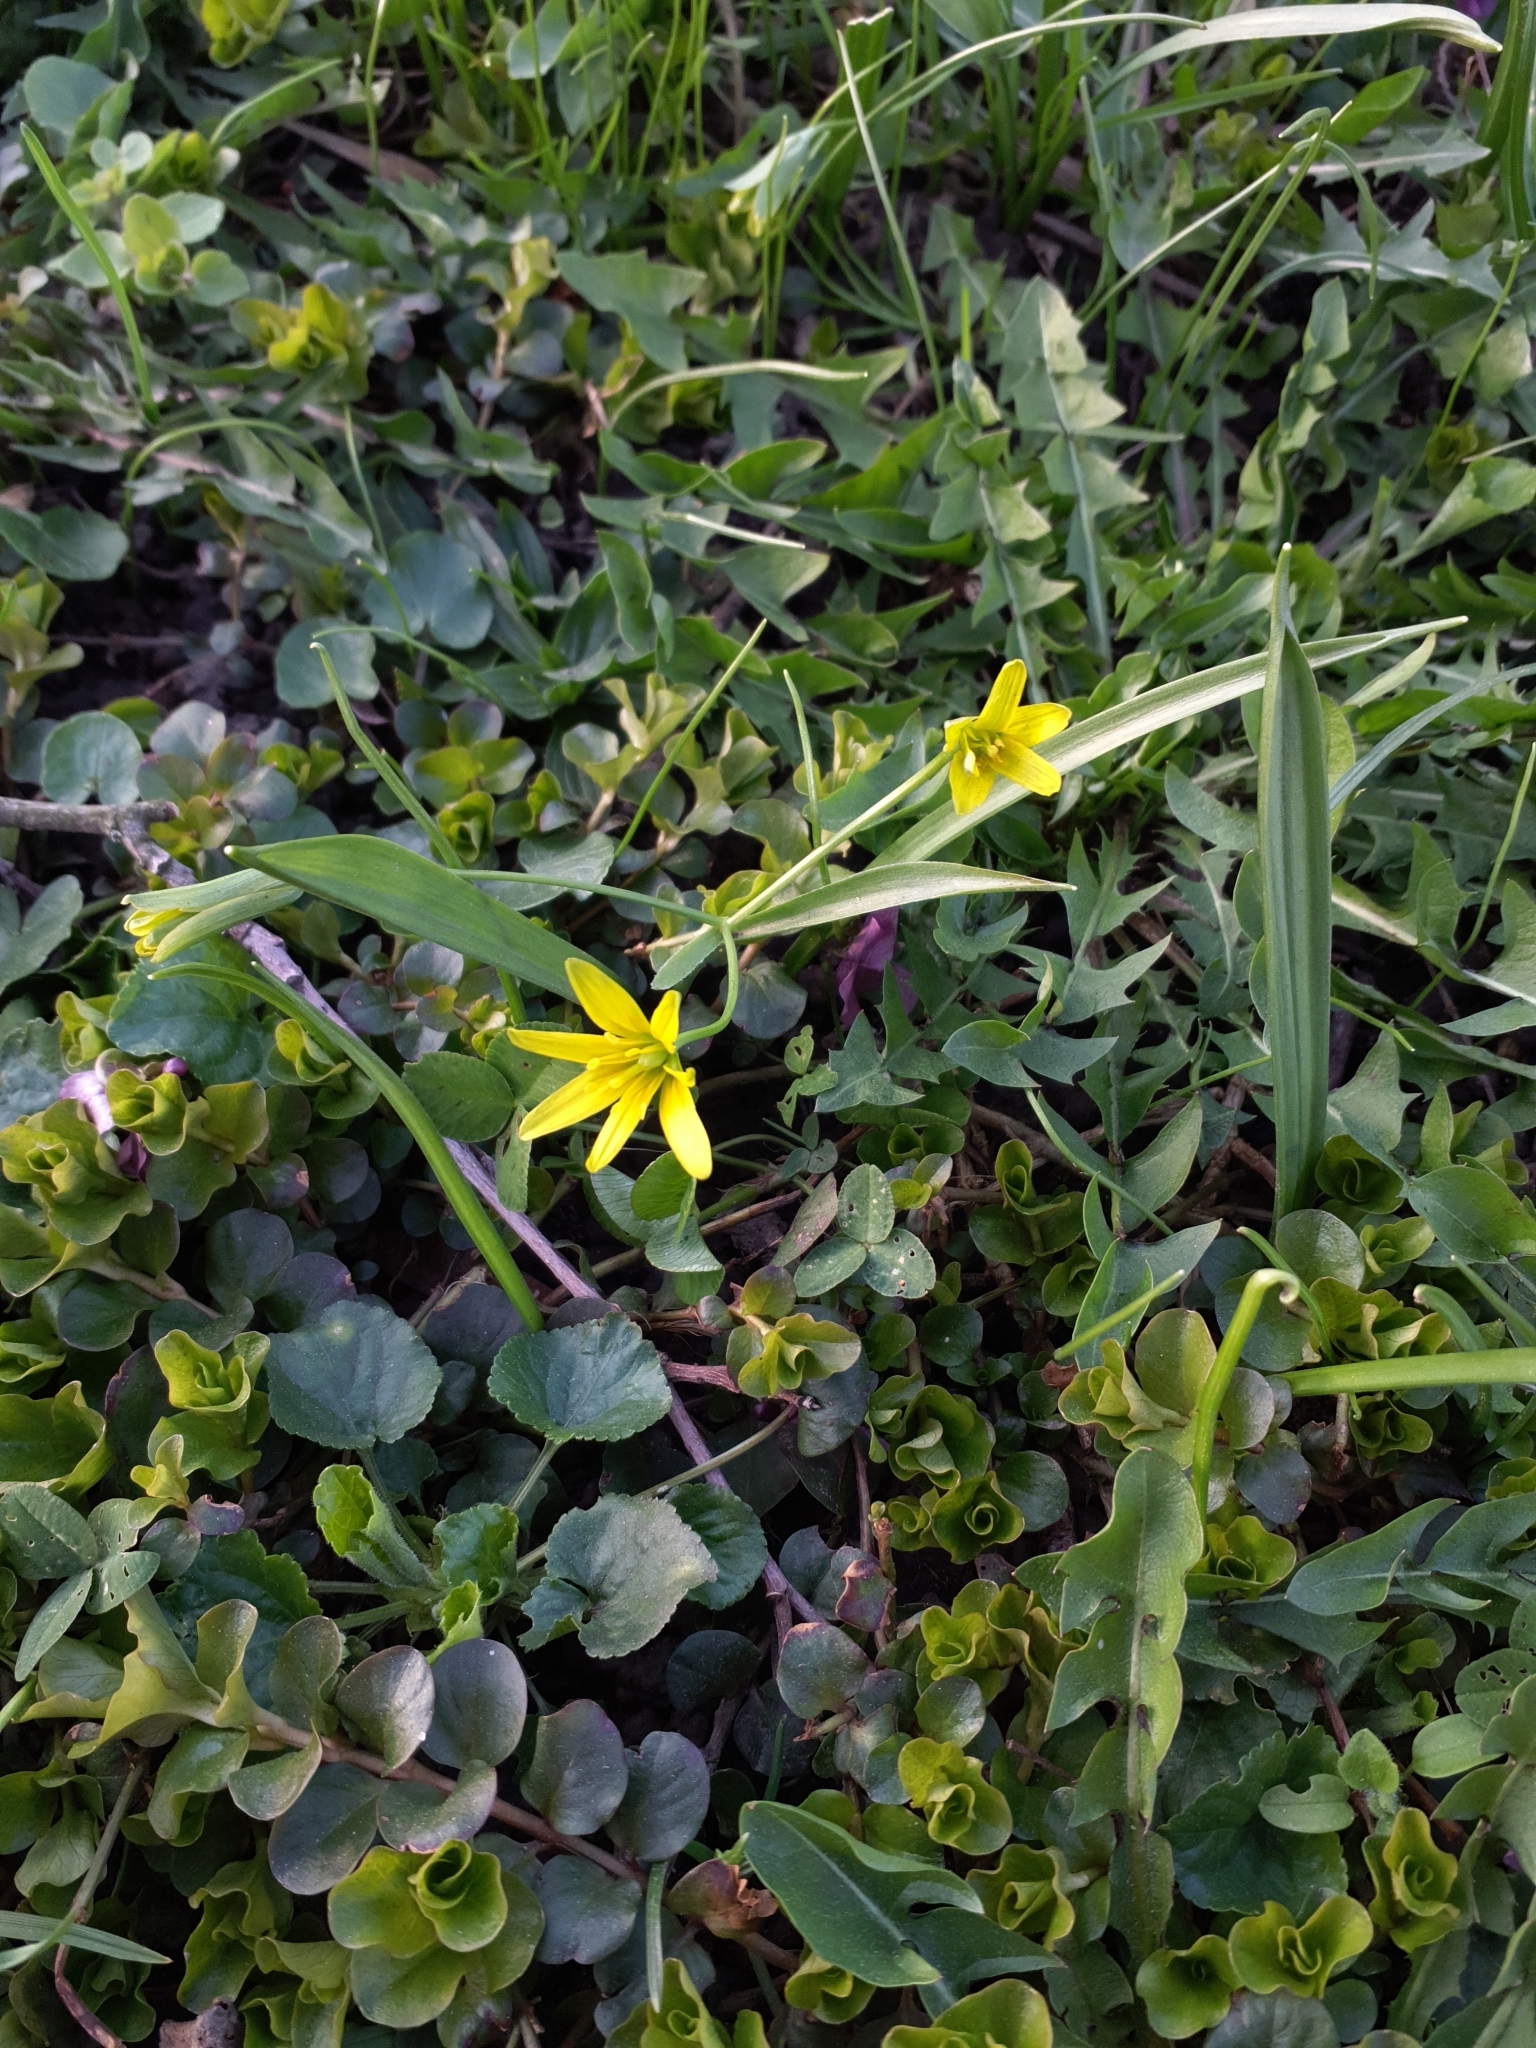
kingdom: Plantae
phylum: Tracheophyta
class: Liliopsida
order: Liliales
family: Liliaceae
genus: Gagea
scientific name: Gagea lutea
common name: Yellow star-of-bethlehem
